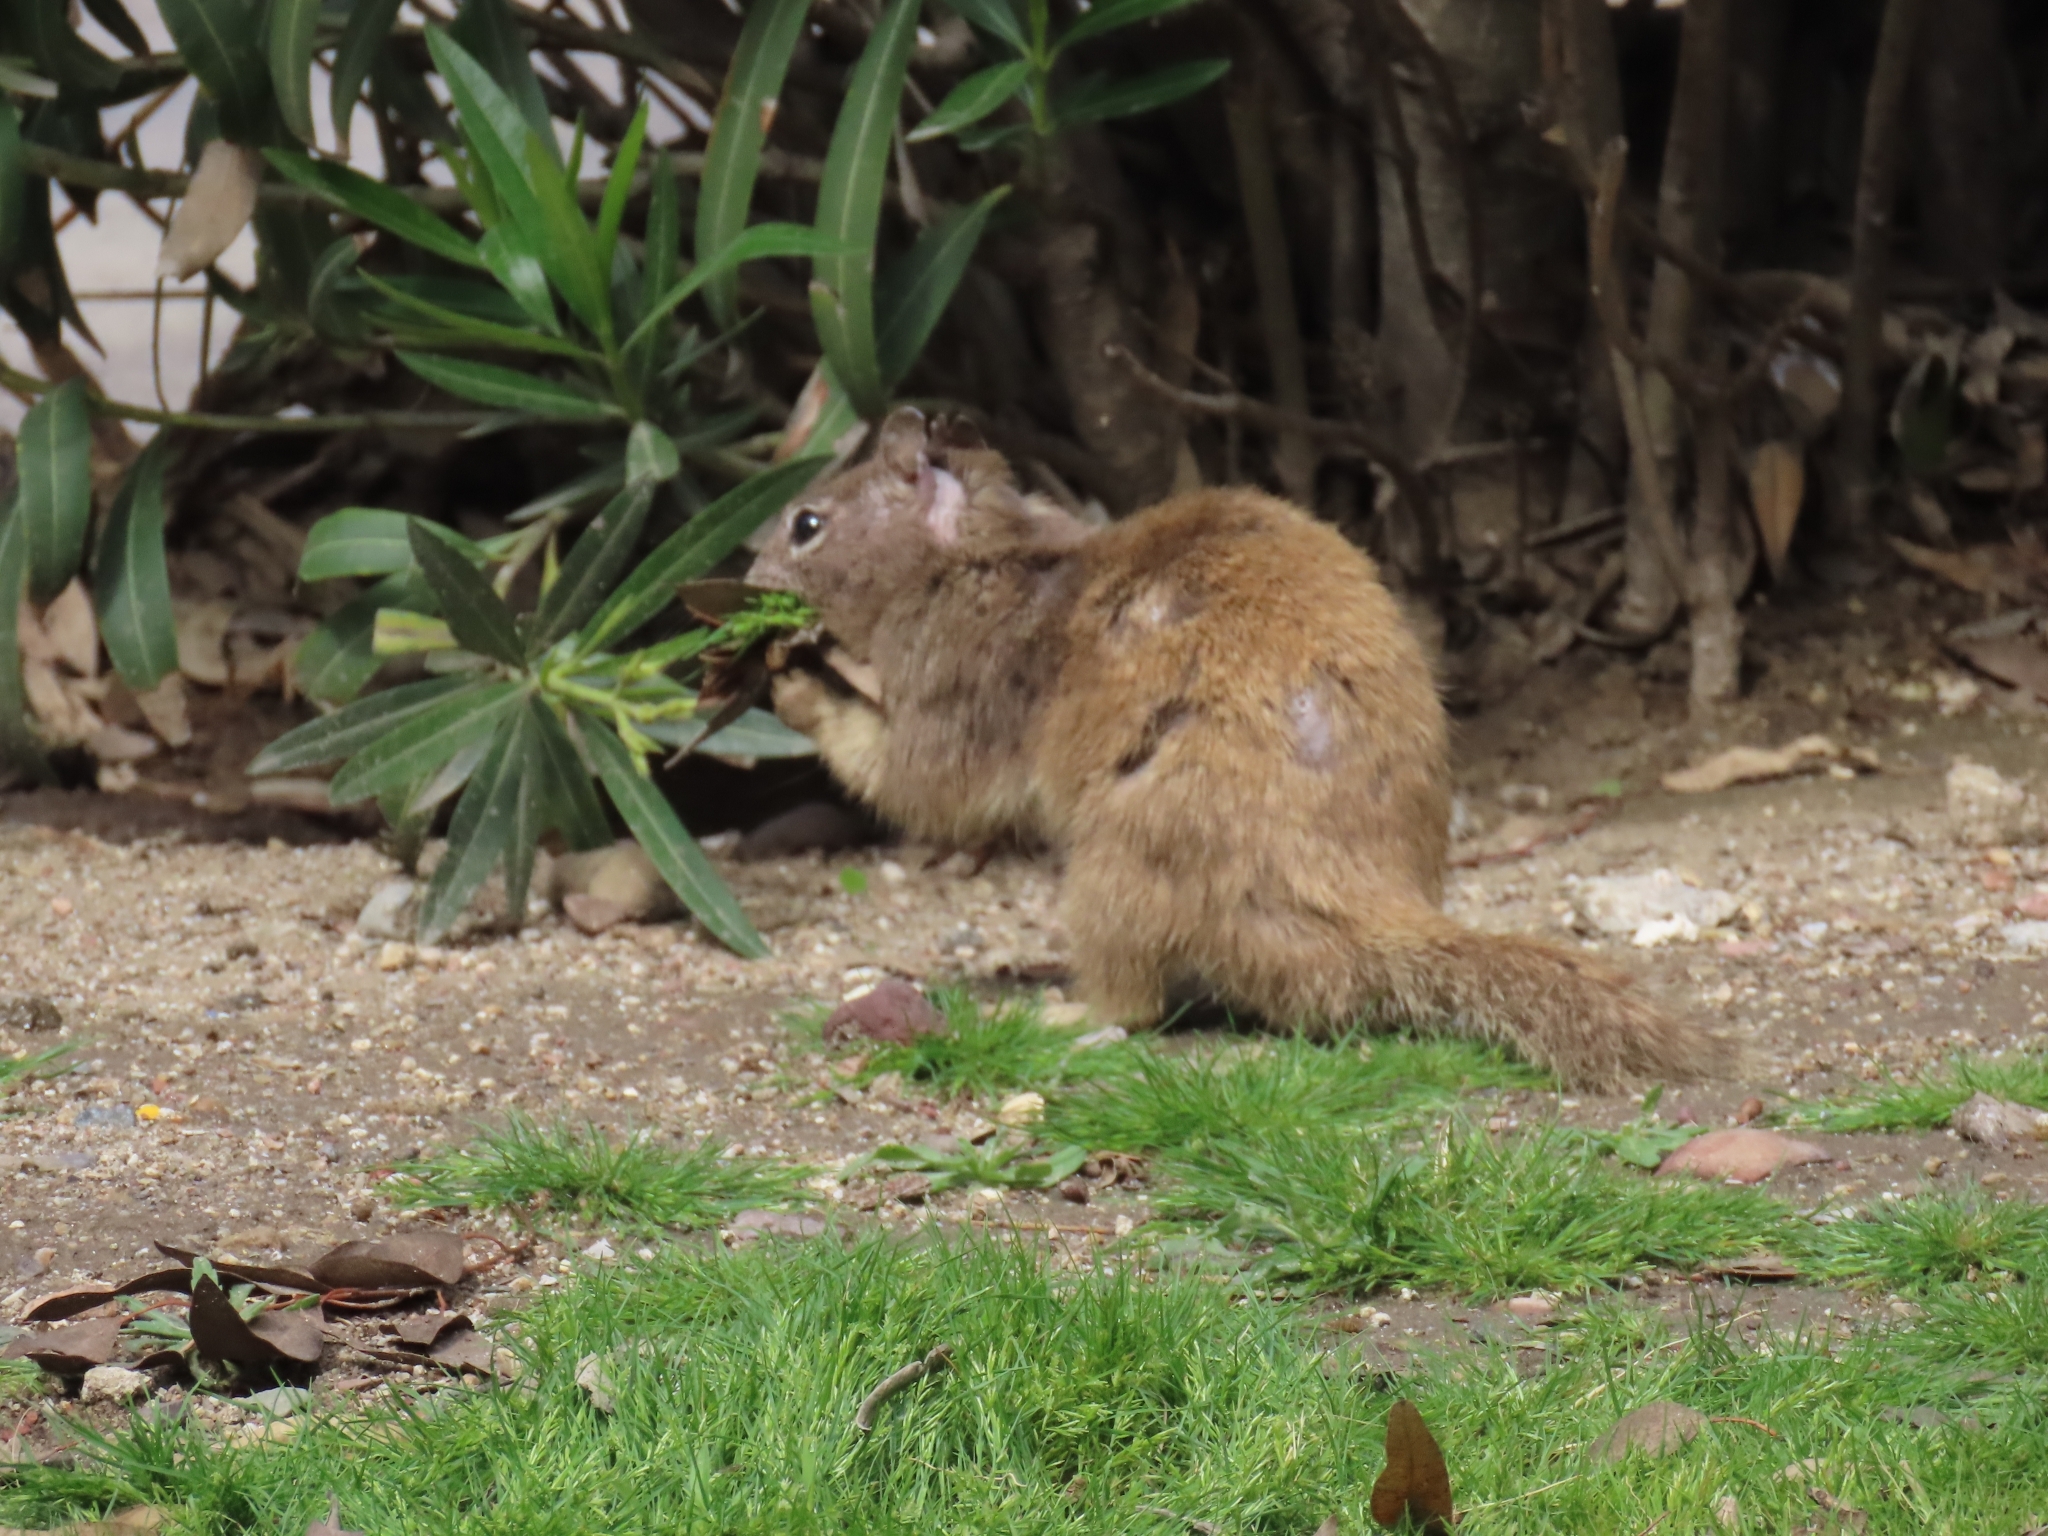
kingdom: Animalia
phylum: Chordata
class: Mammalia
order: Rodentia
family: Sciuridae
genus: Otospermophilus
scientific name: Otospermophilus beecheyi
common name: California ground squirrel
